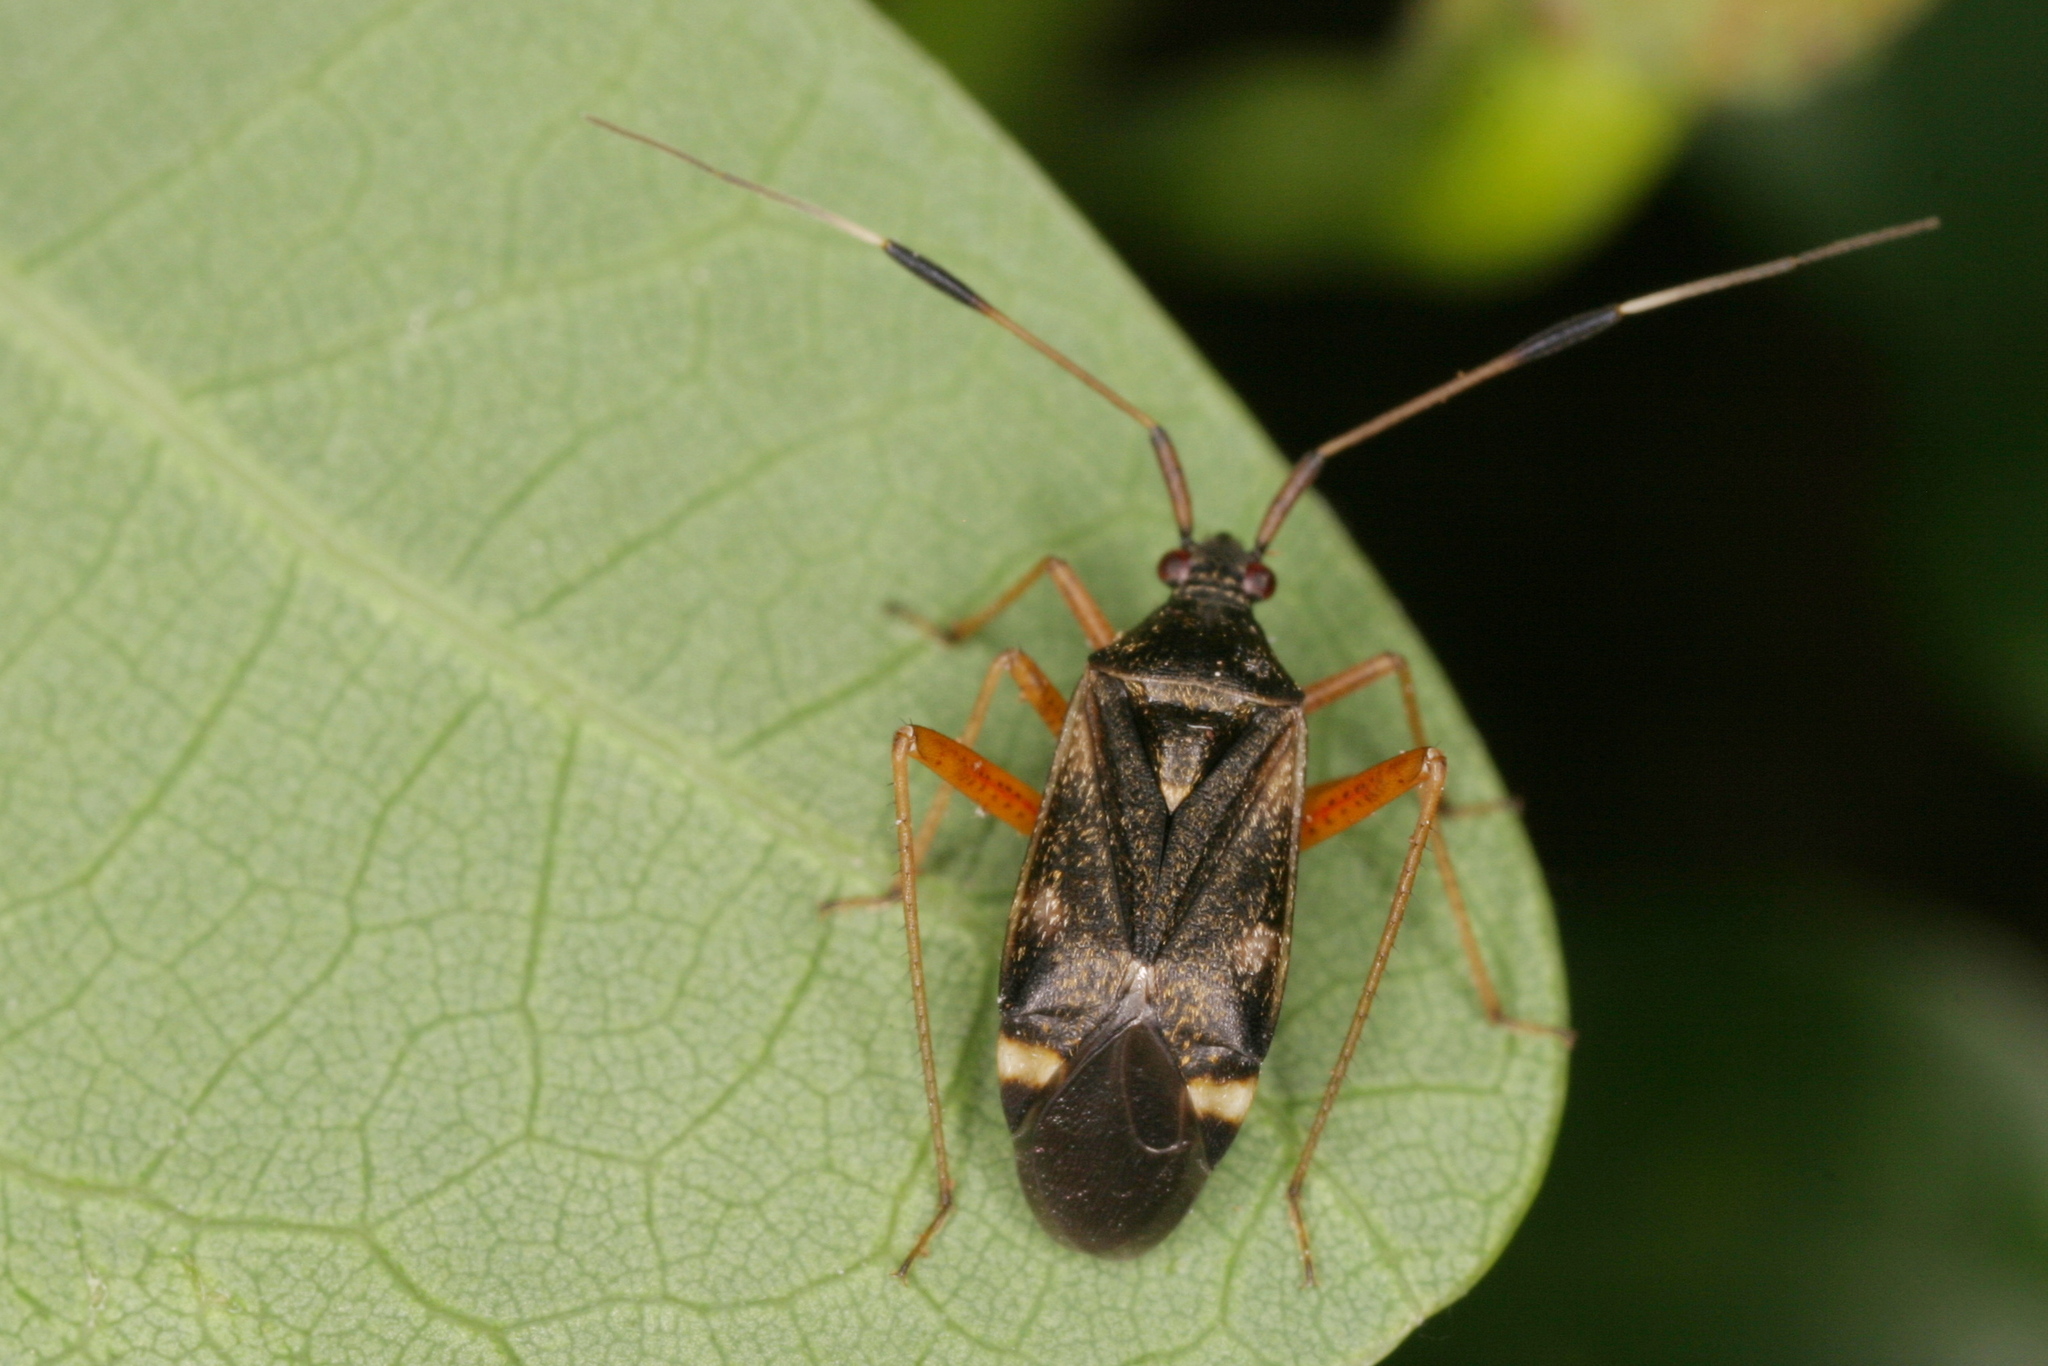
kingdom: Animalia
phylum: Arthropoda
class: Insecta
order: Hemiptera
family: Miridae
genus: Closterotomus
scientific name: Closterotomus biclavatus
